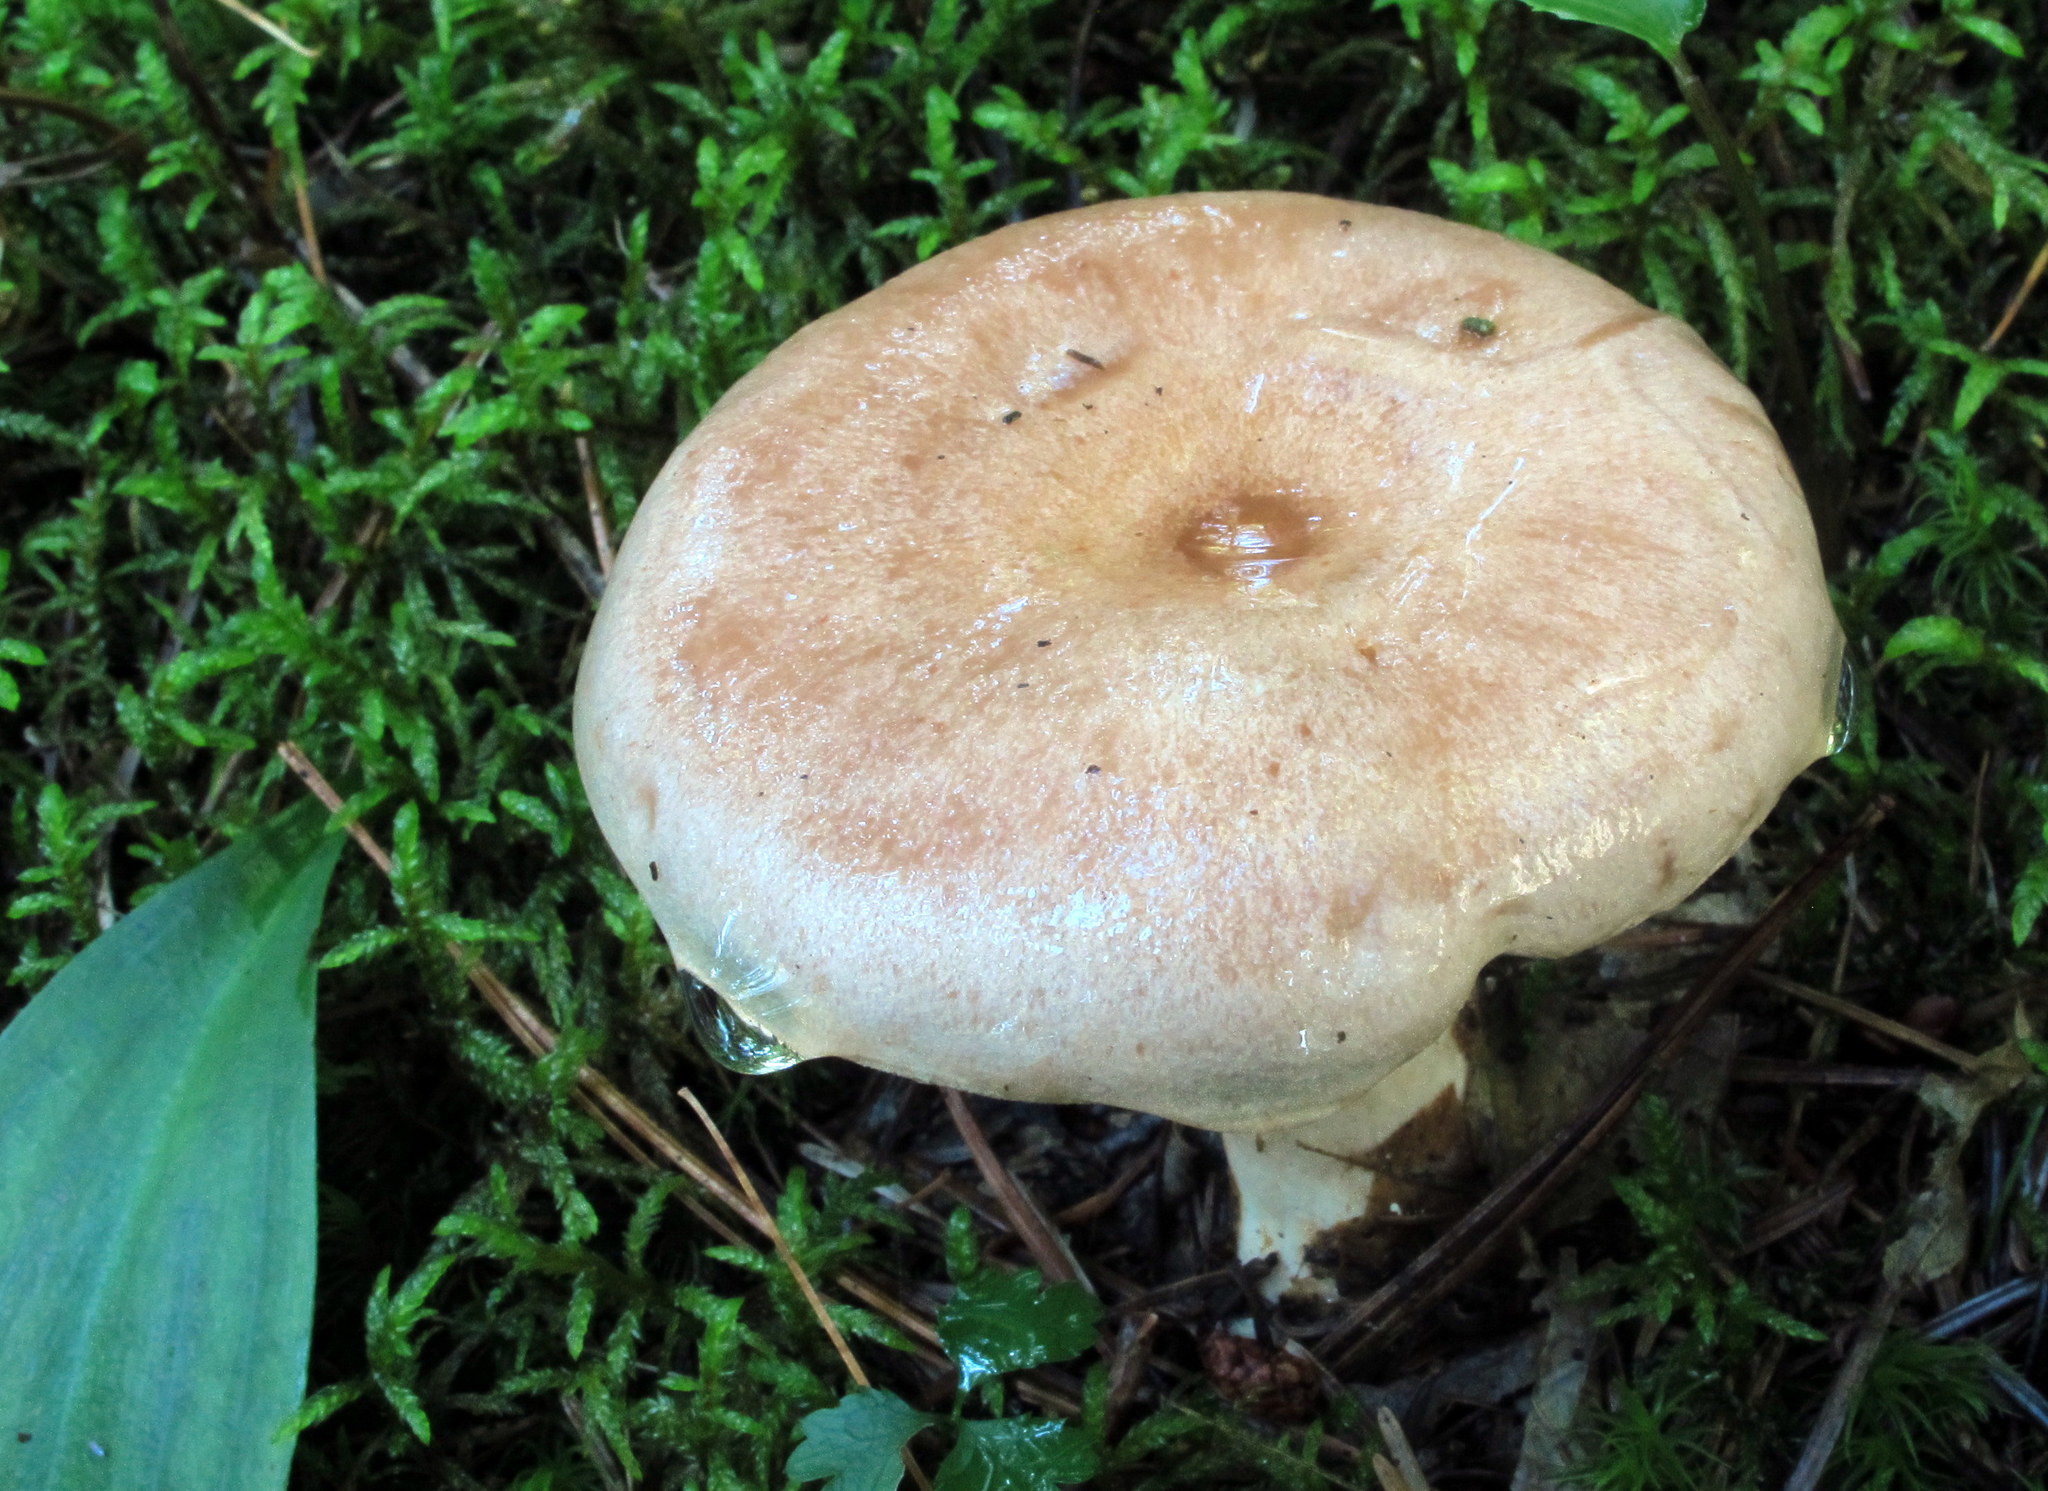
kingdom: Fungi
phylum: Basidiomycota
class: Agaricomycetes
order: Russulales
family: Russulaceae
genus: Lactarius
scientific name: Lactarius affinis
